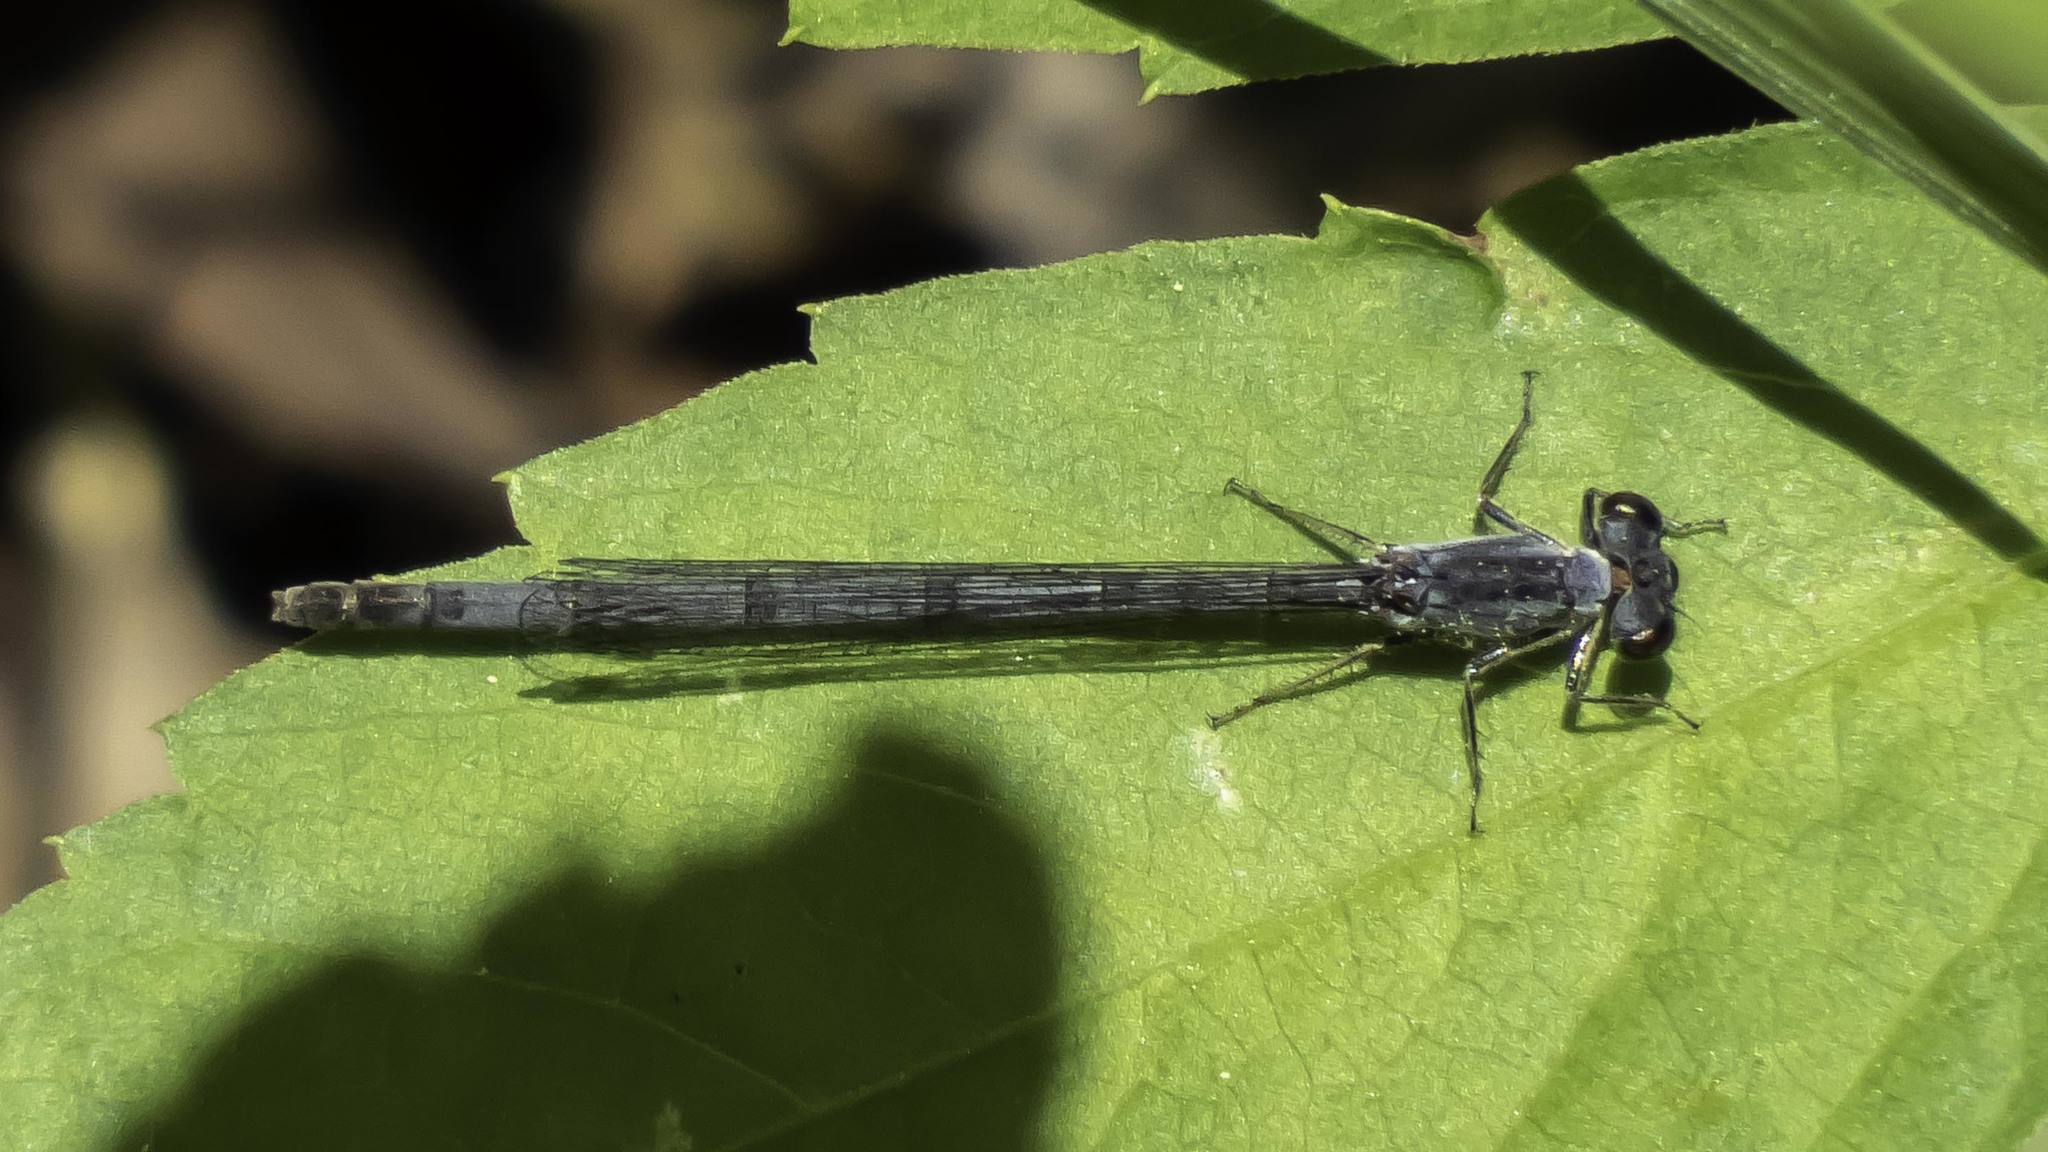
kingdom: Animalia
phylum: Arthropoda
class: Insecta
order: Odonata
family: Coenagrionidae
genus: Ischnura
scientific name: Ischnura posita
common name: Fragile forktail
